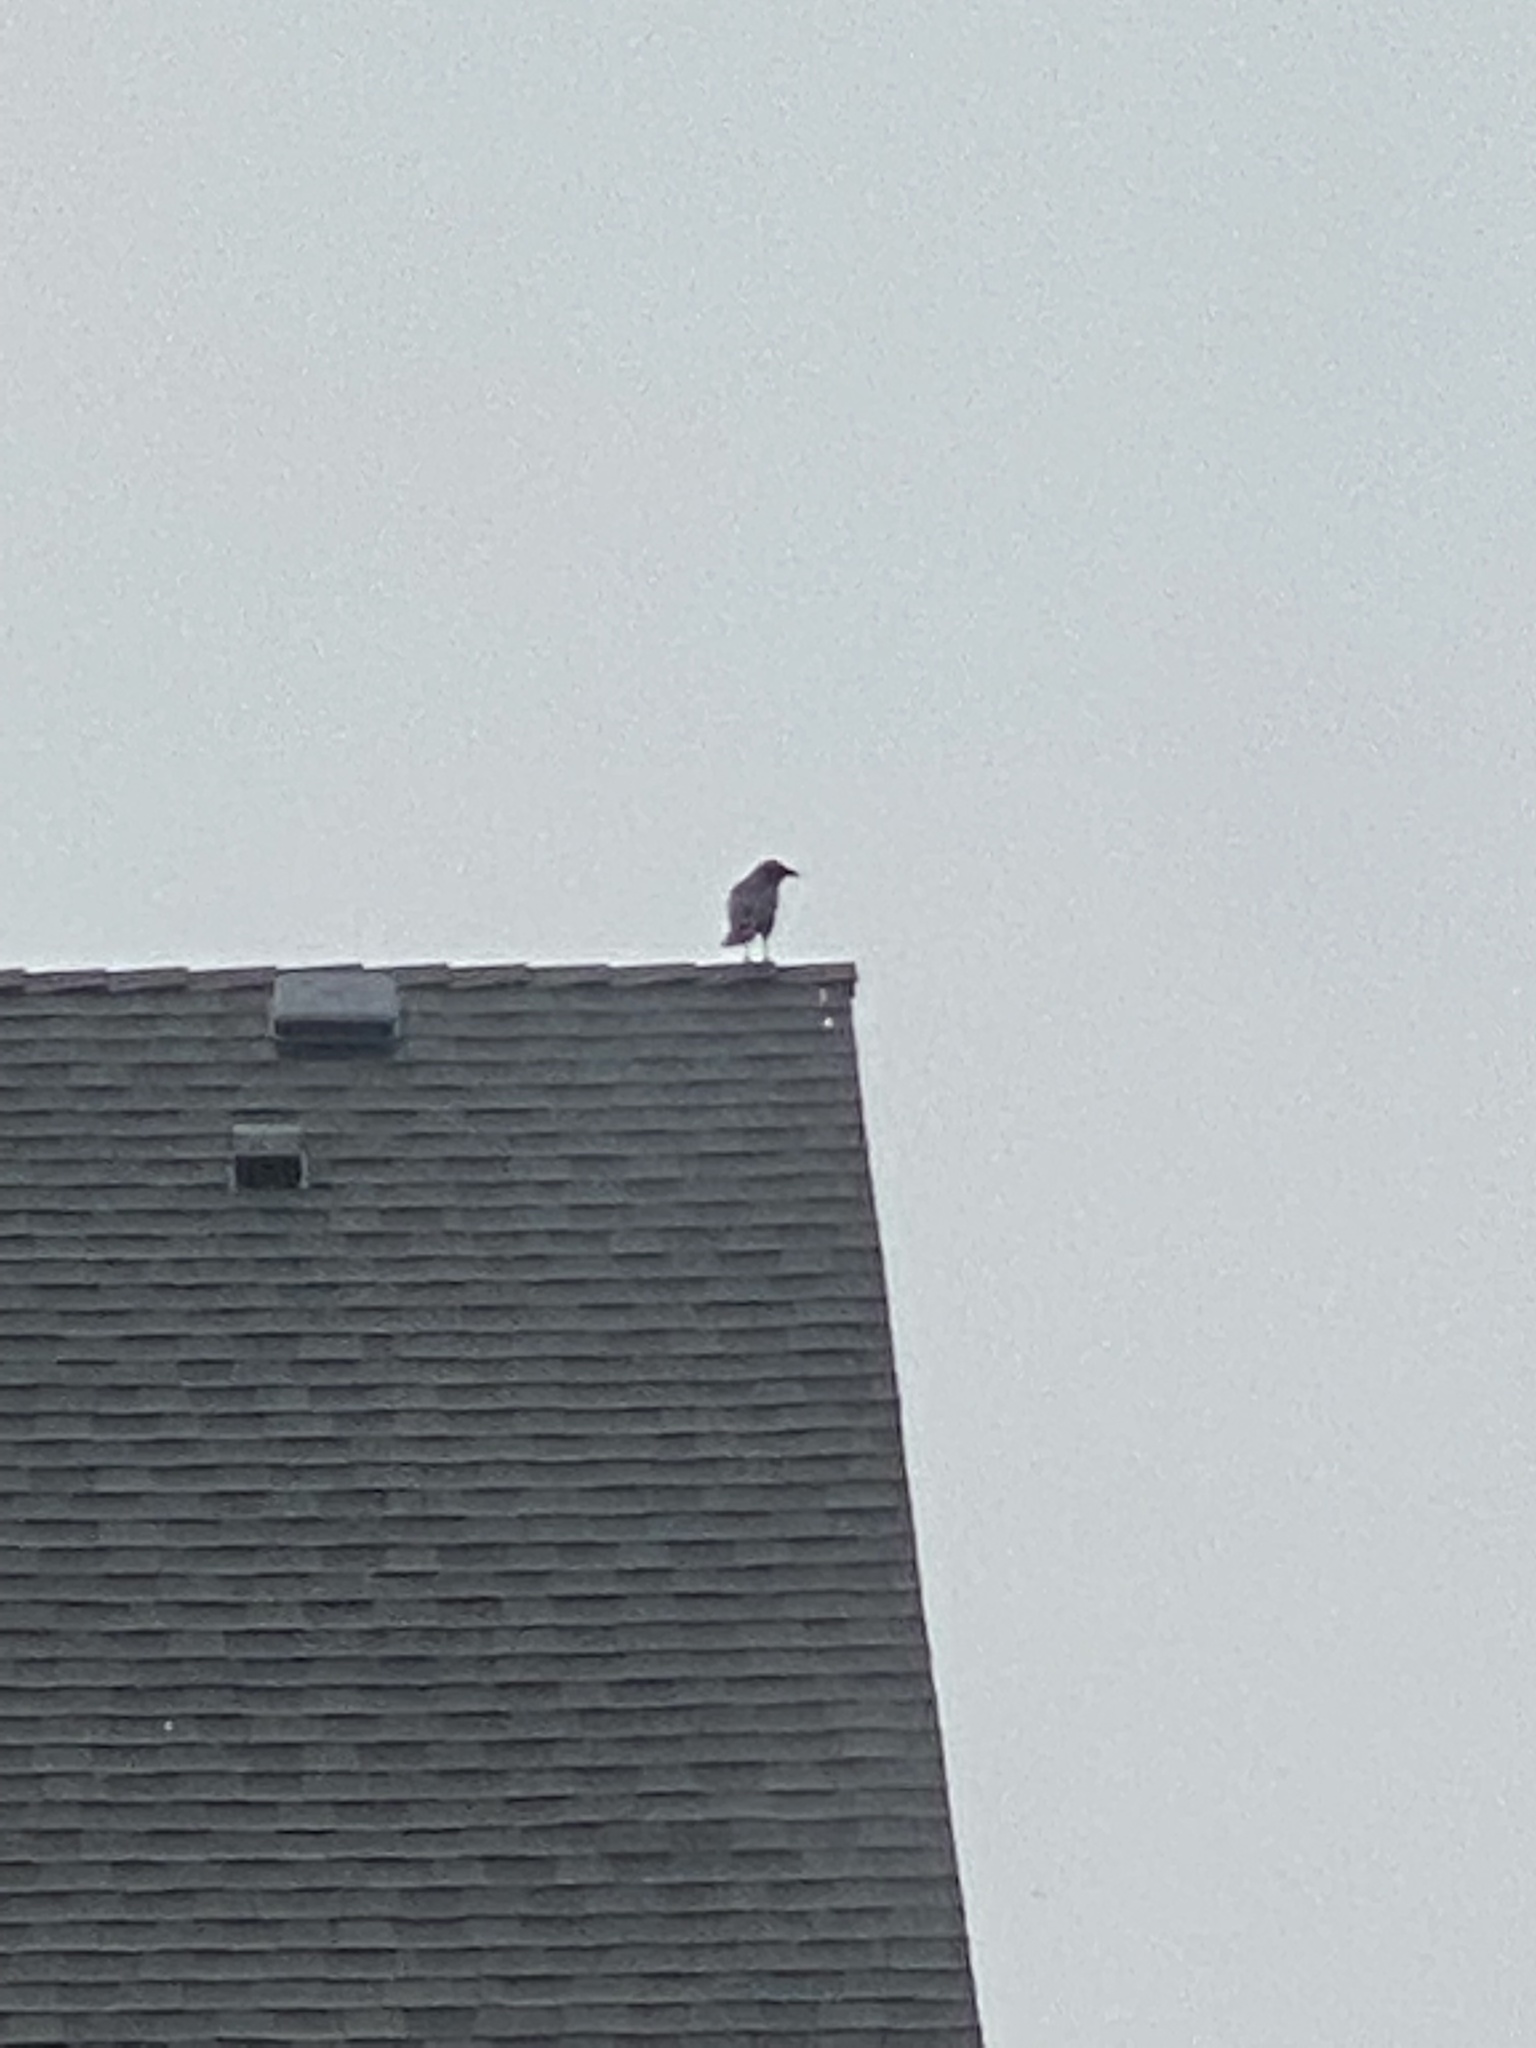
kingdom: Animalia
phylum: Chordata
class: Aves
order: Passeriformes
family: Corvidae
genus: Corvus
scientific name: Corvus brachyrhynchos
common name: American crow
